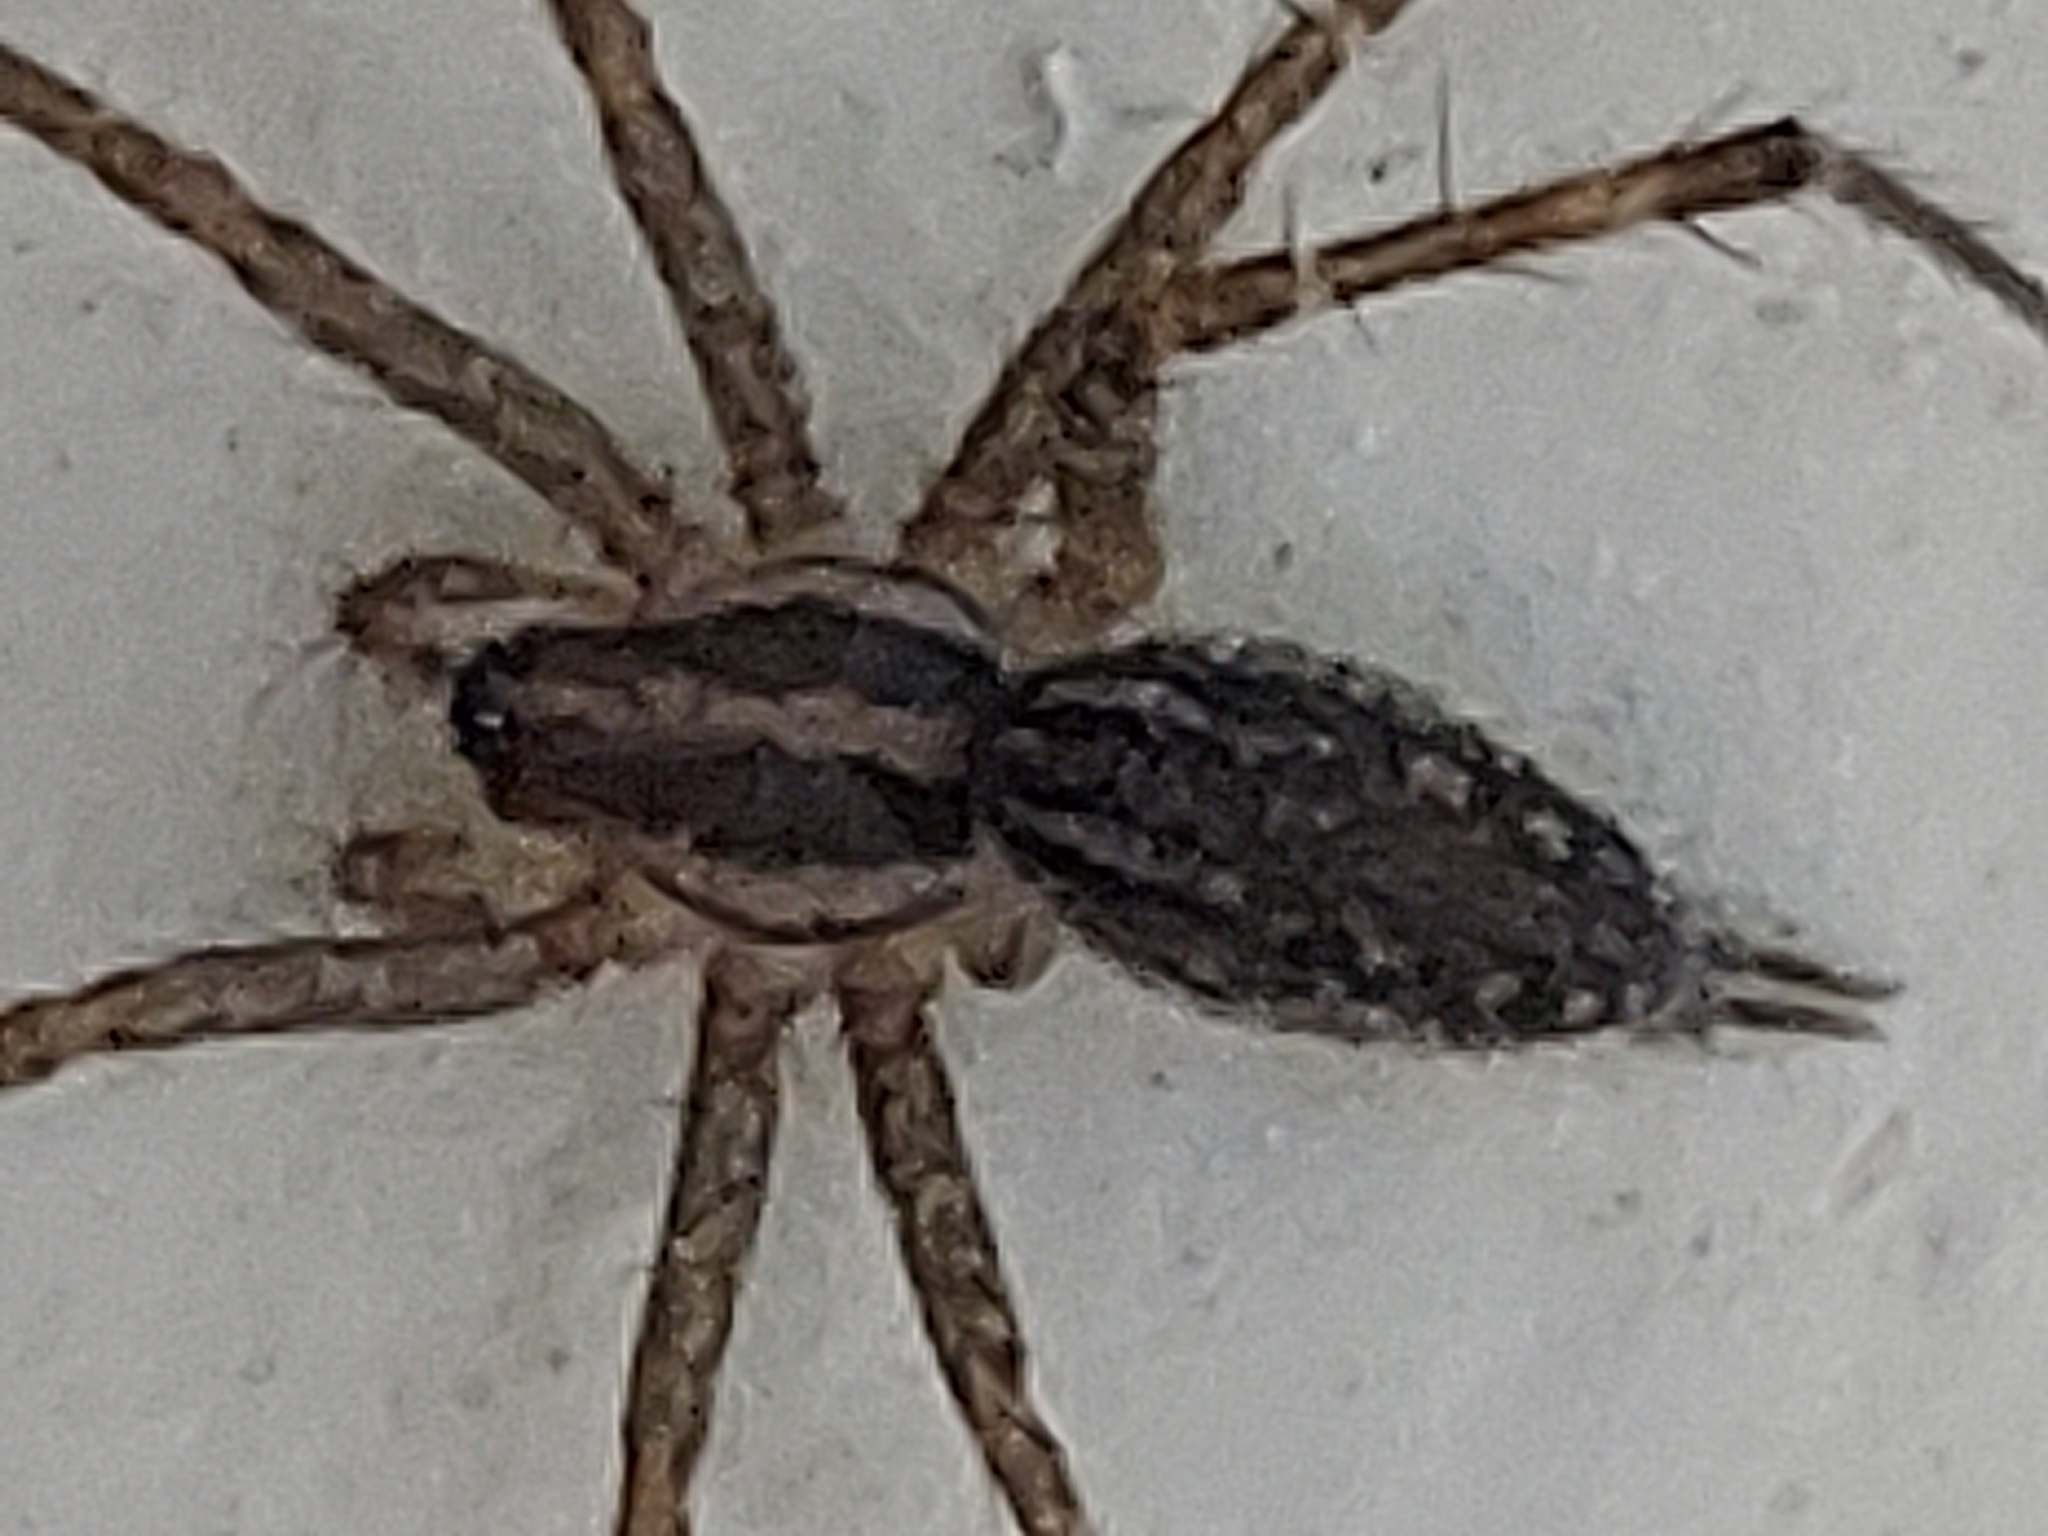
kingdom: Animalia
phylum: Arthropoda
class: Arachnida
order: Araneae
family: Agelenidae
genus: Agelenopsis
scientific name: Agelenopsis
